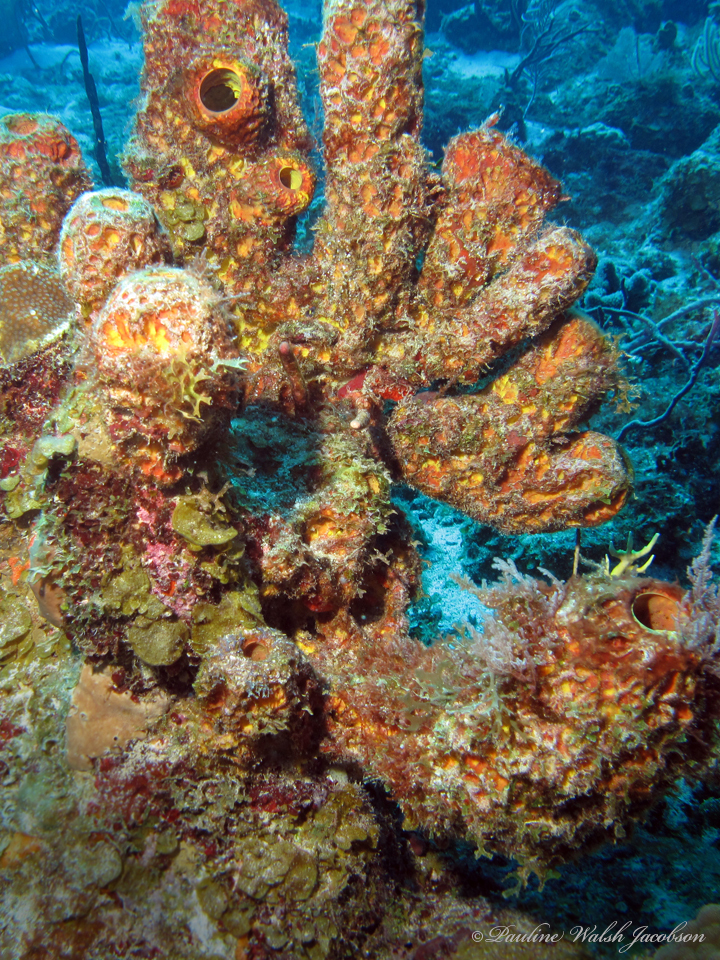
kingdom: Animalia
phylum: Porifera
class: Demospongiae
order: Verongiida
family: Aplysinidae
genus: Aplysina
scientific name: Aplysina lacunosa
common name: Convoluted barrel sponge
